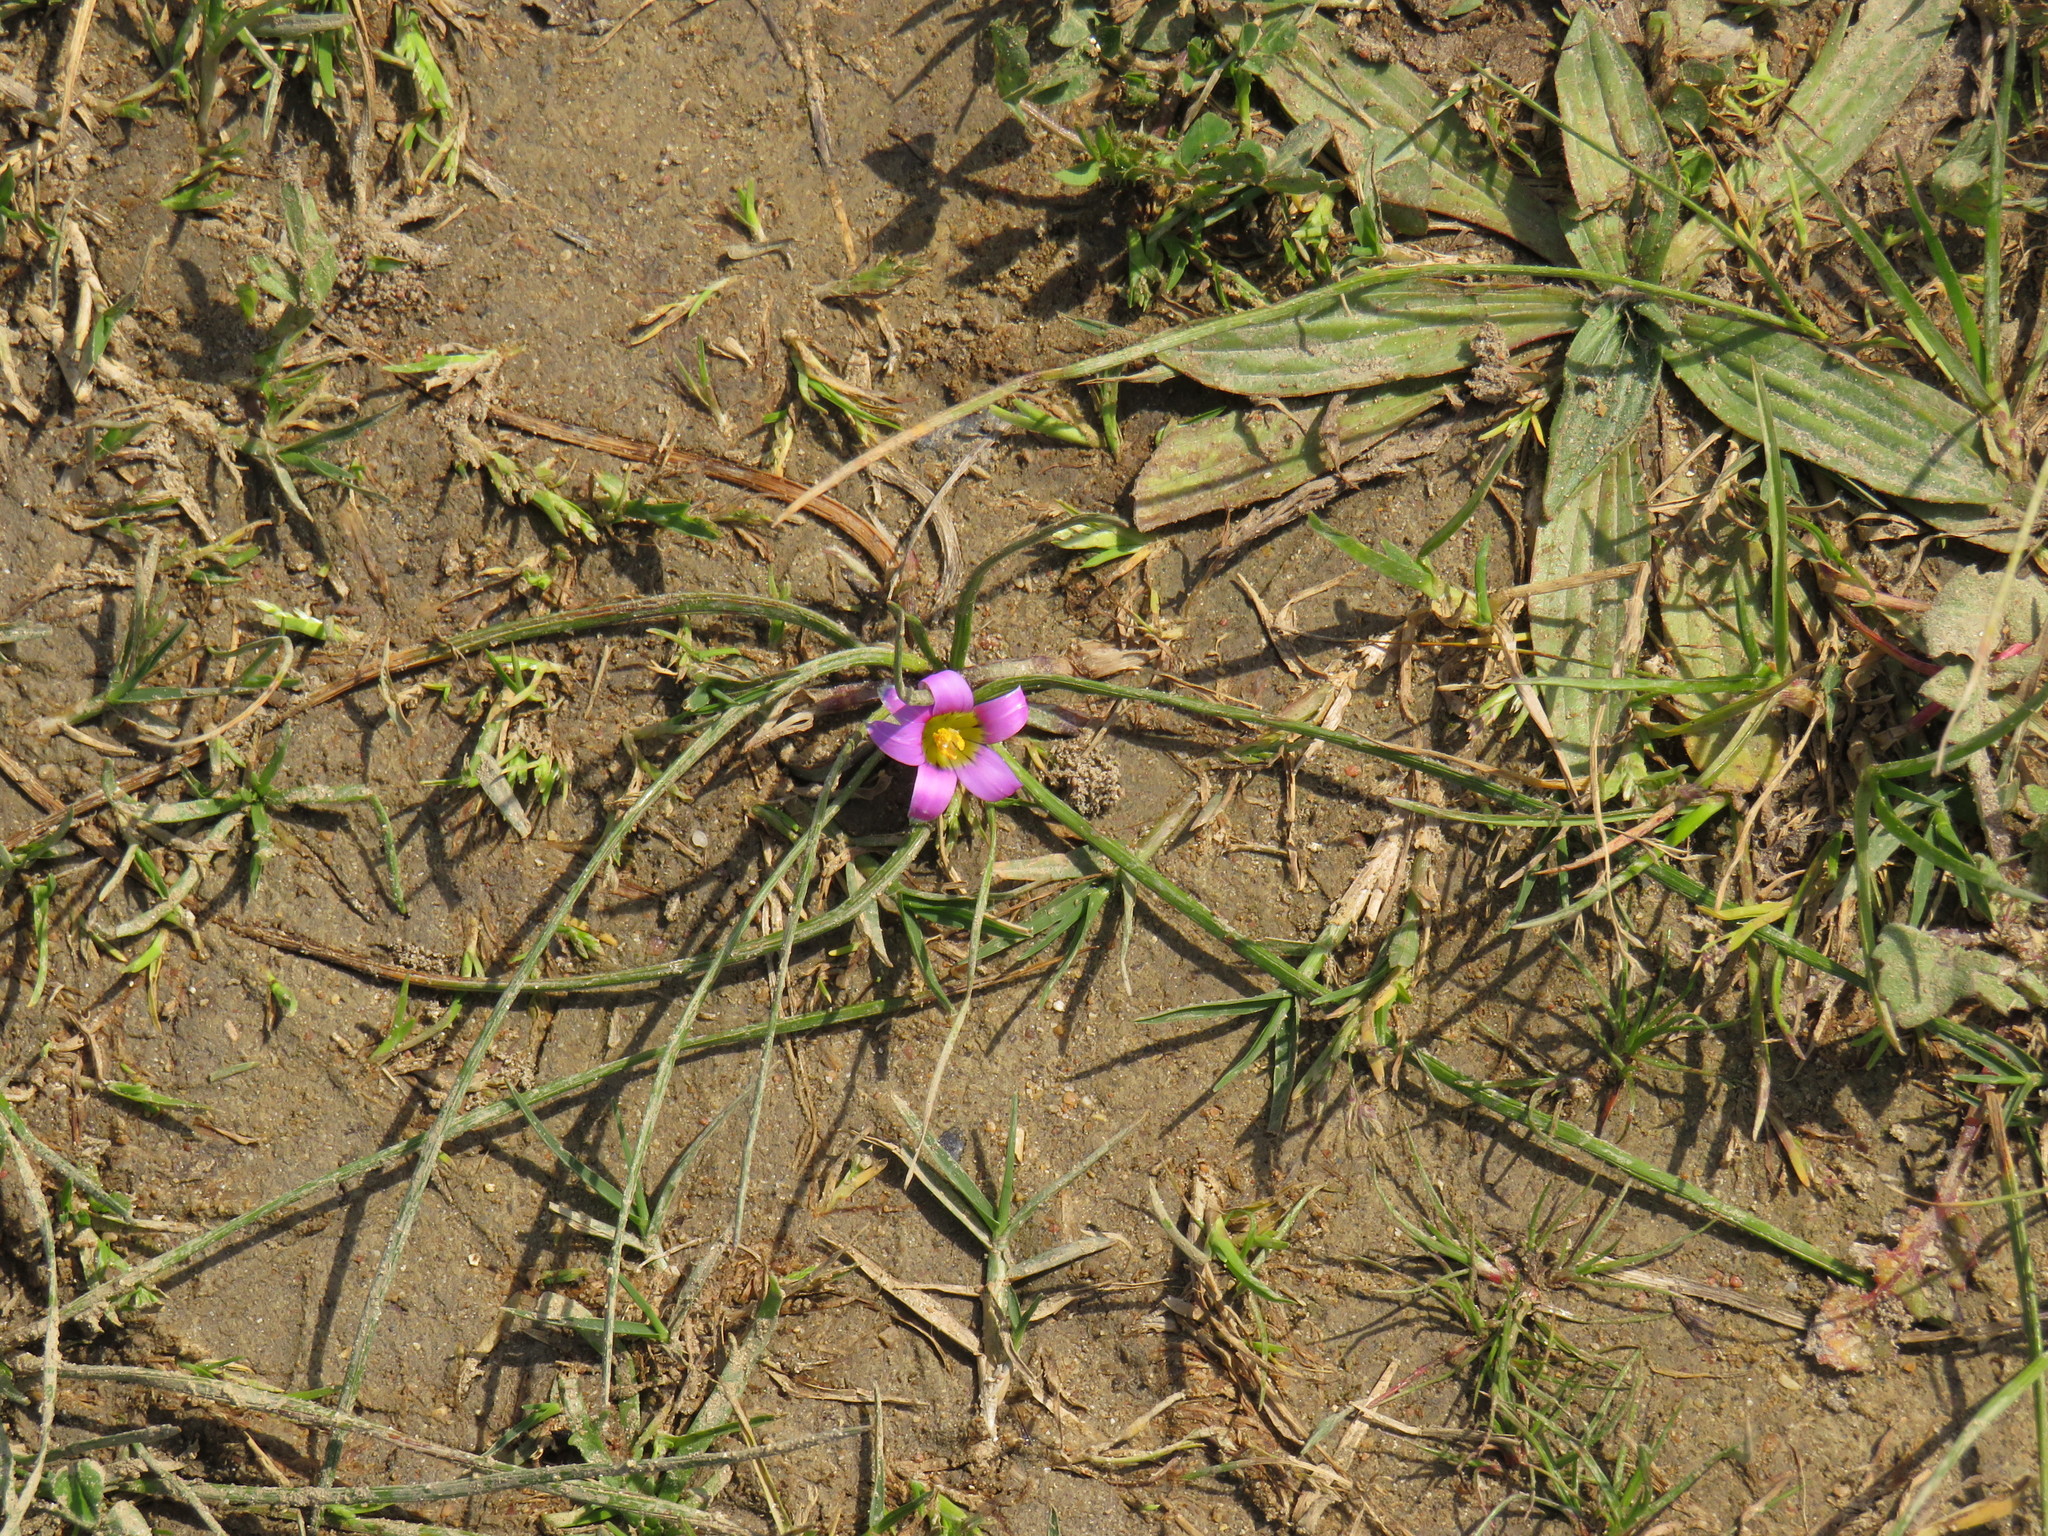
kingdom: Plantae
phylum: Tracheophyta
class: Liliopsida
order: Asparagales
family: Iridaceae
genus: Romulea
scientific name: Romulea rosea
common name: Oniongrass
